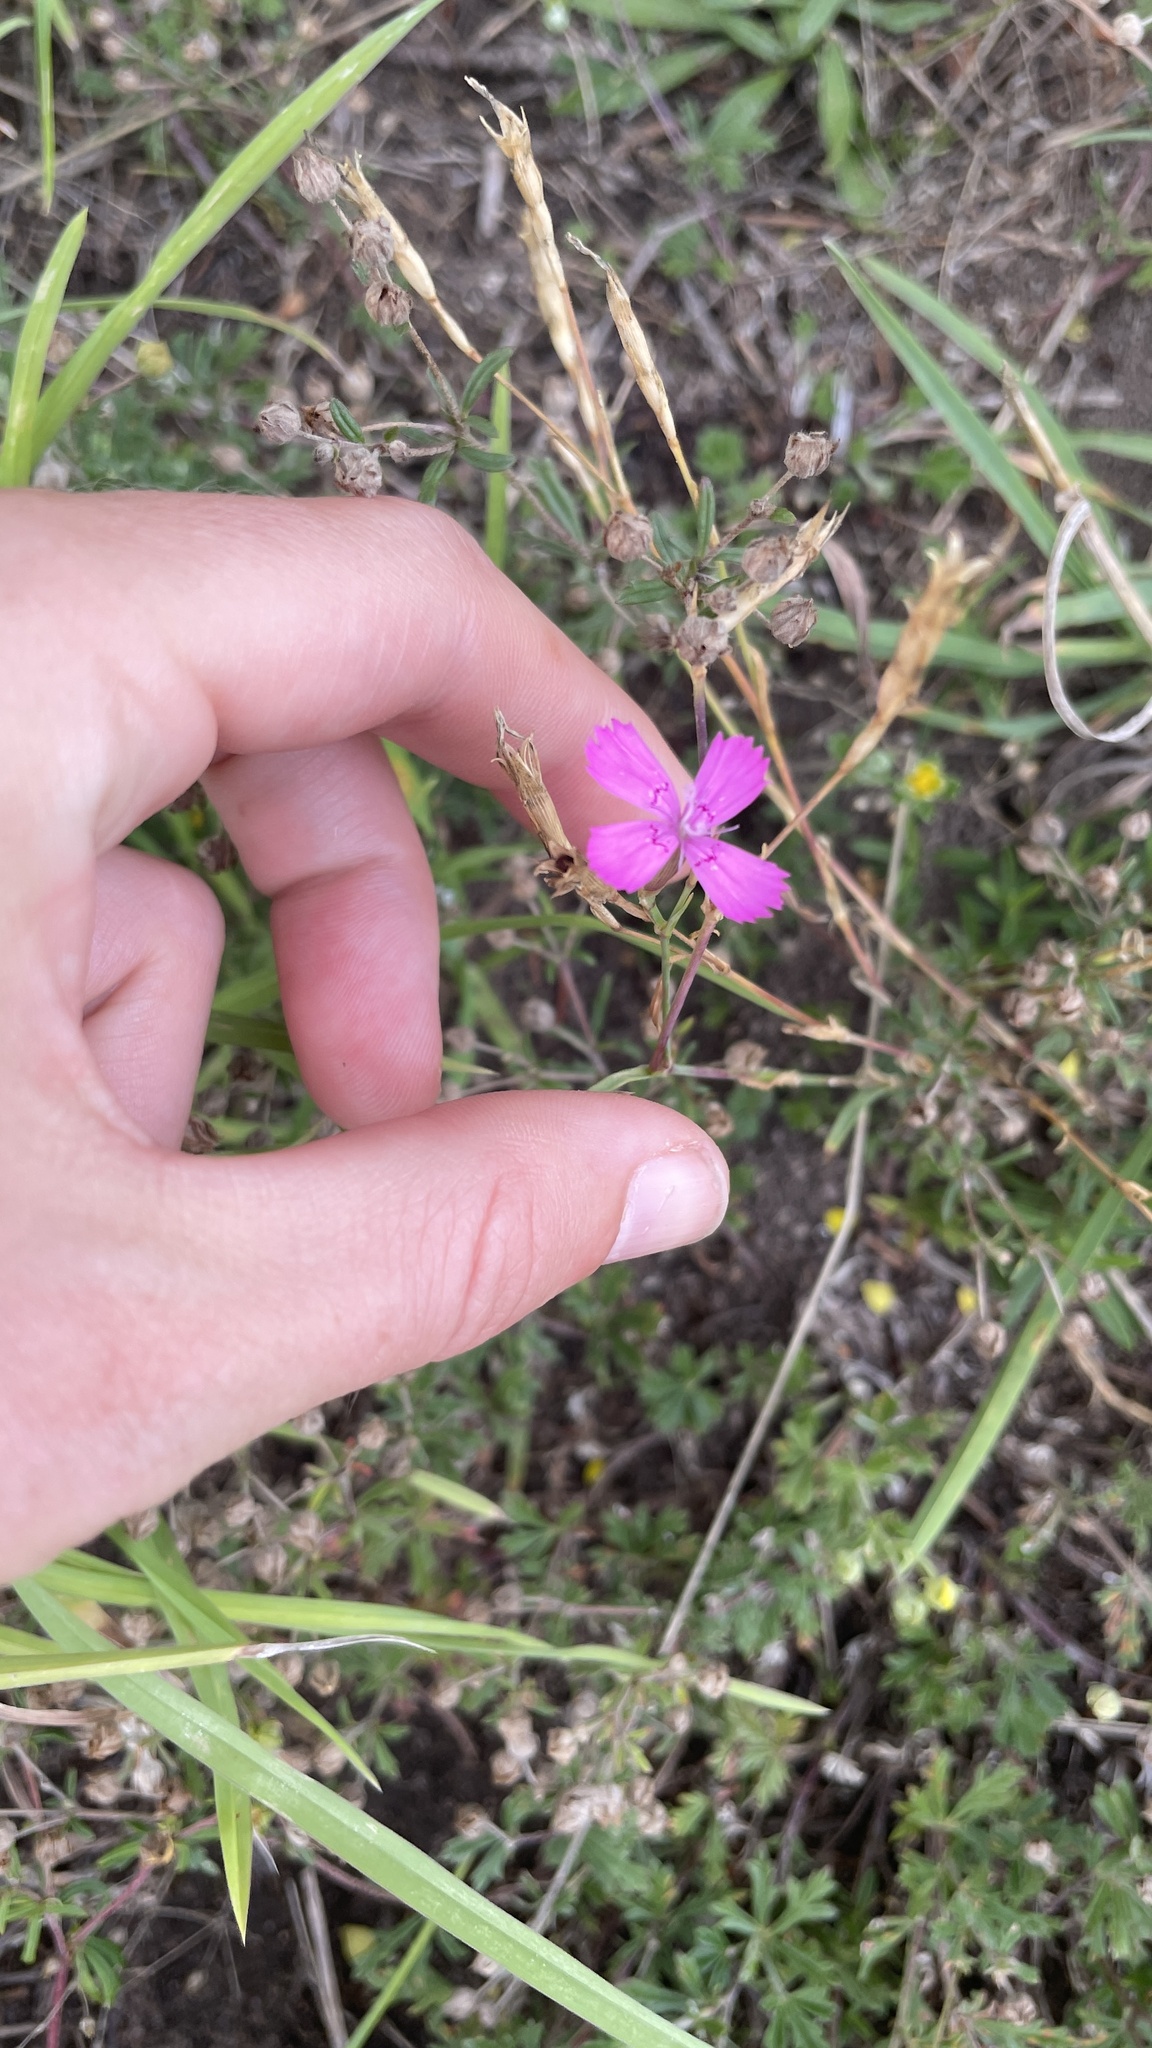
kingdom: Plantae
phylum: Tracheophyta
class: Magnoliopsida
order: Caryophyllales
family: Caryophyllaceae
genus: Dianthus
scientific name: Dianthus deltoides
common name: Maiden pink
